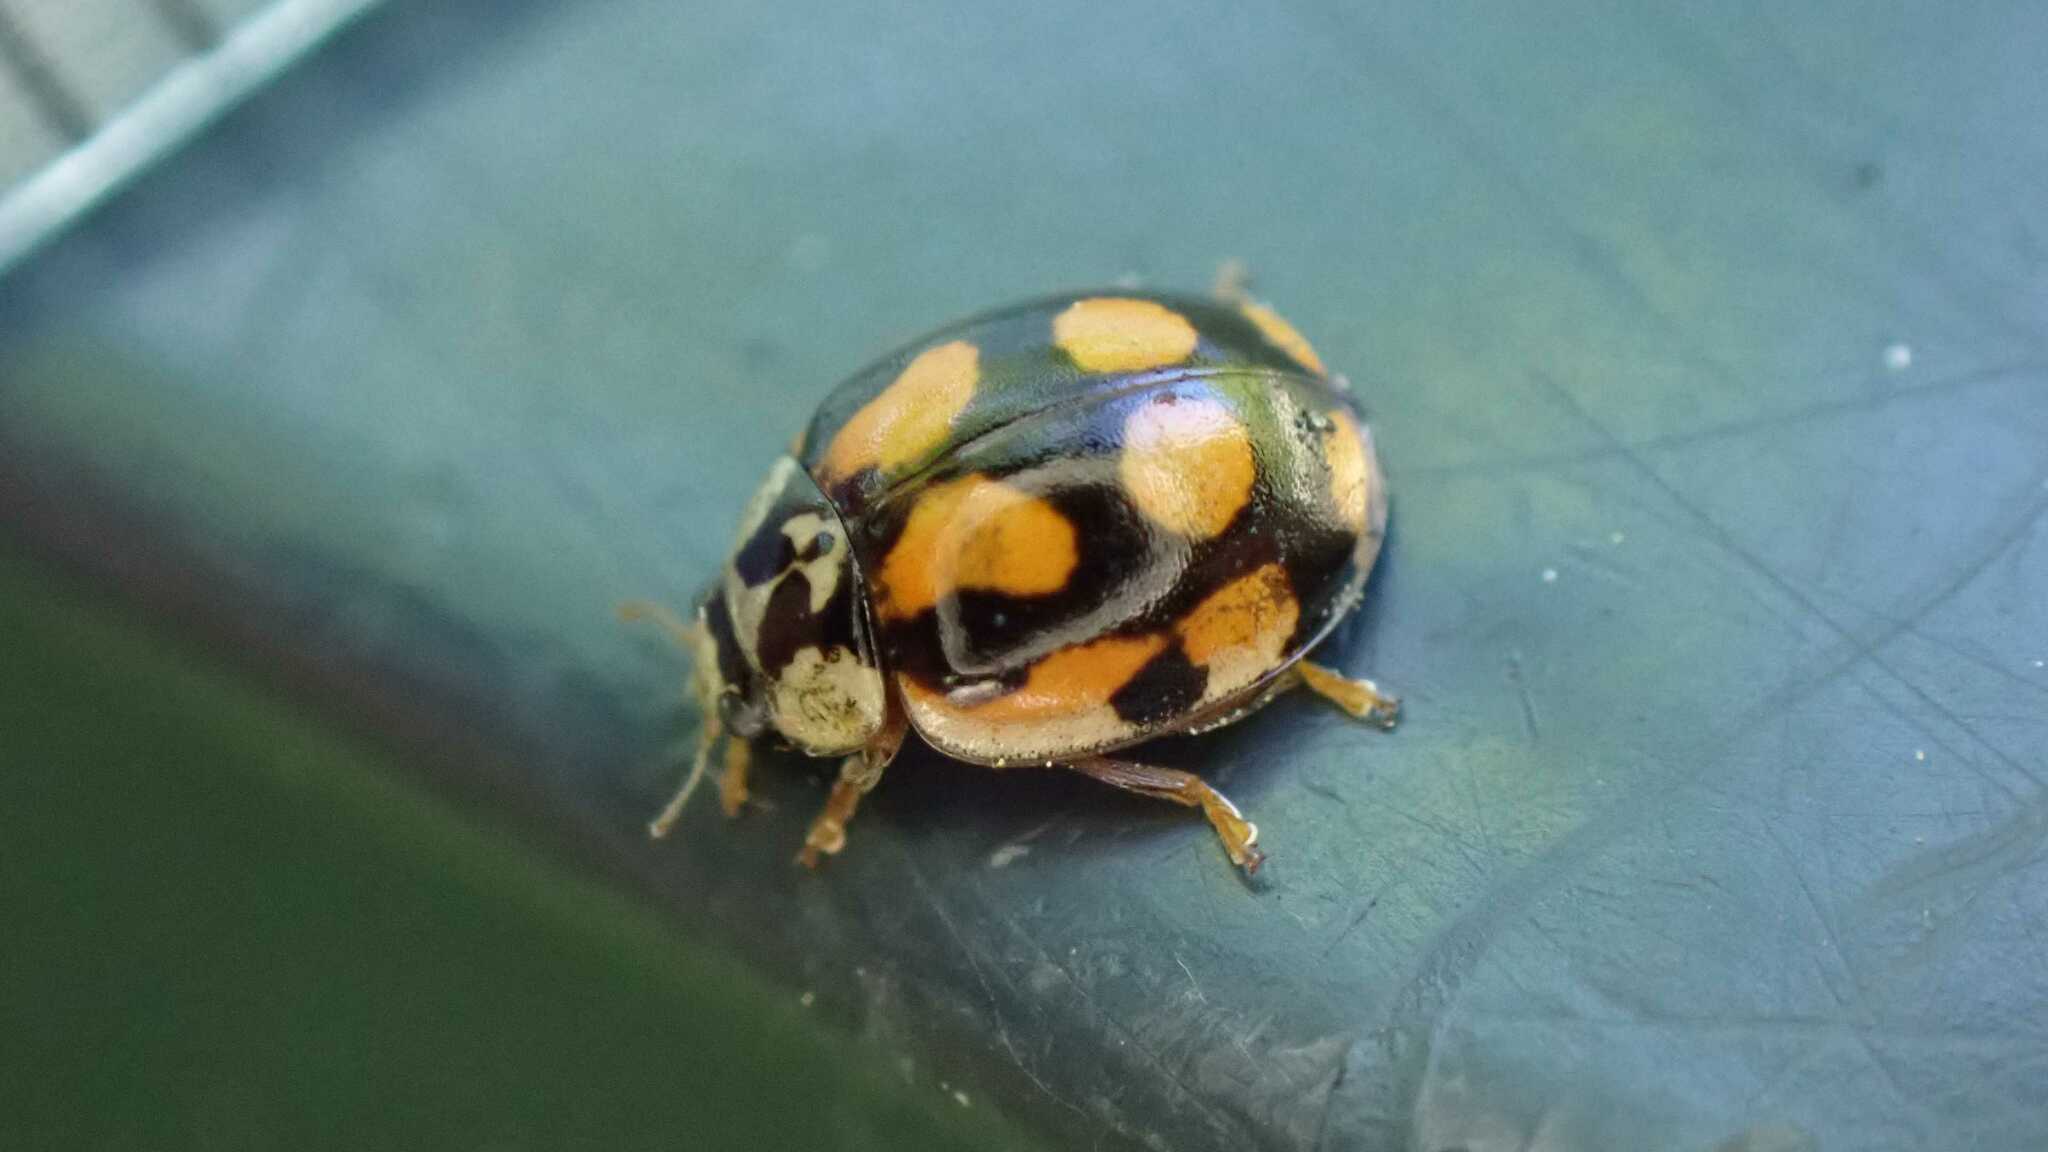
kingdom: Animalia
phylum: Arthropoda
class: Insecta
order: Coleoptera
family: Coccinellidae
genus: Adalia
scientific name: Adalia decempunctata
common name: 10-spot ladybird
